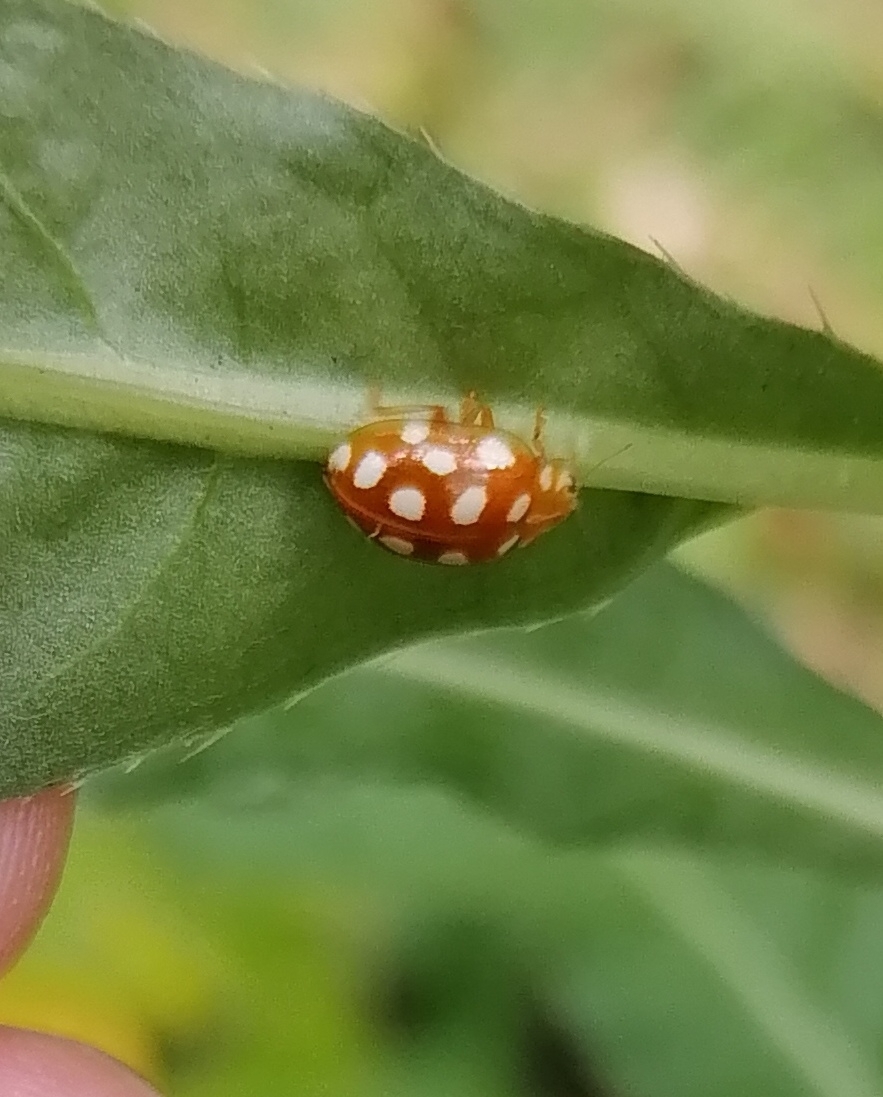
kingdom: Animalia
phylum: Arthropoda
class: Insecta
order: Coleoptera
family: Coccinellidae
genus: Halyzia
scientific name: Halyzia sedecimguttata
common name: Orange ladybird
